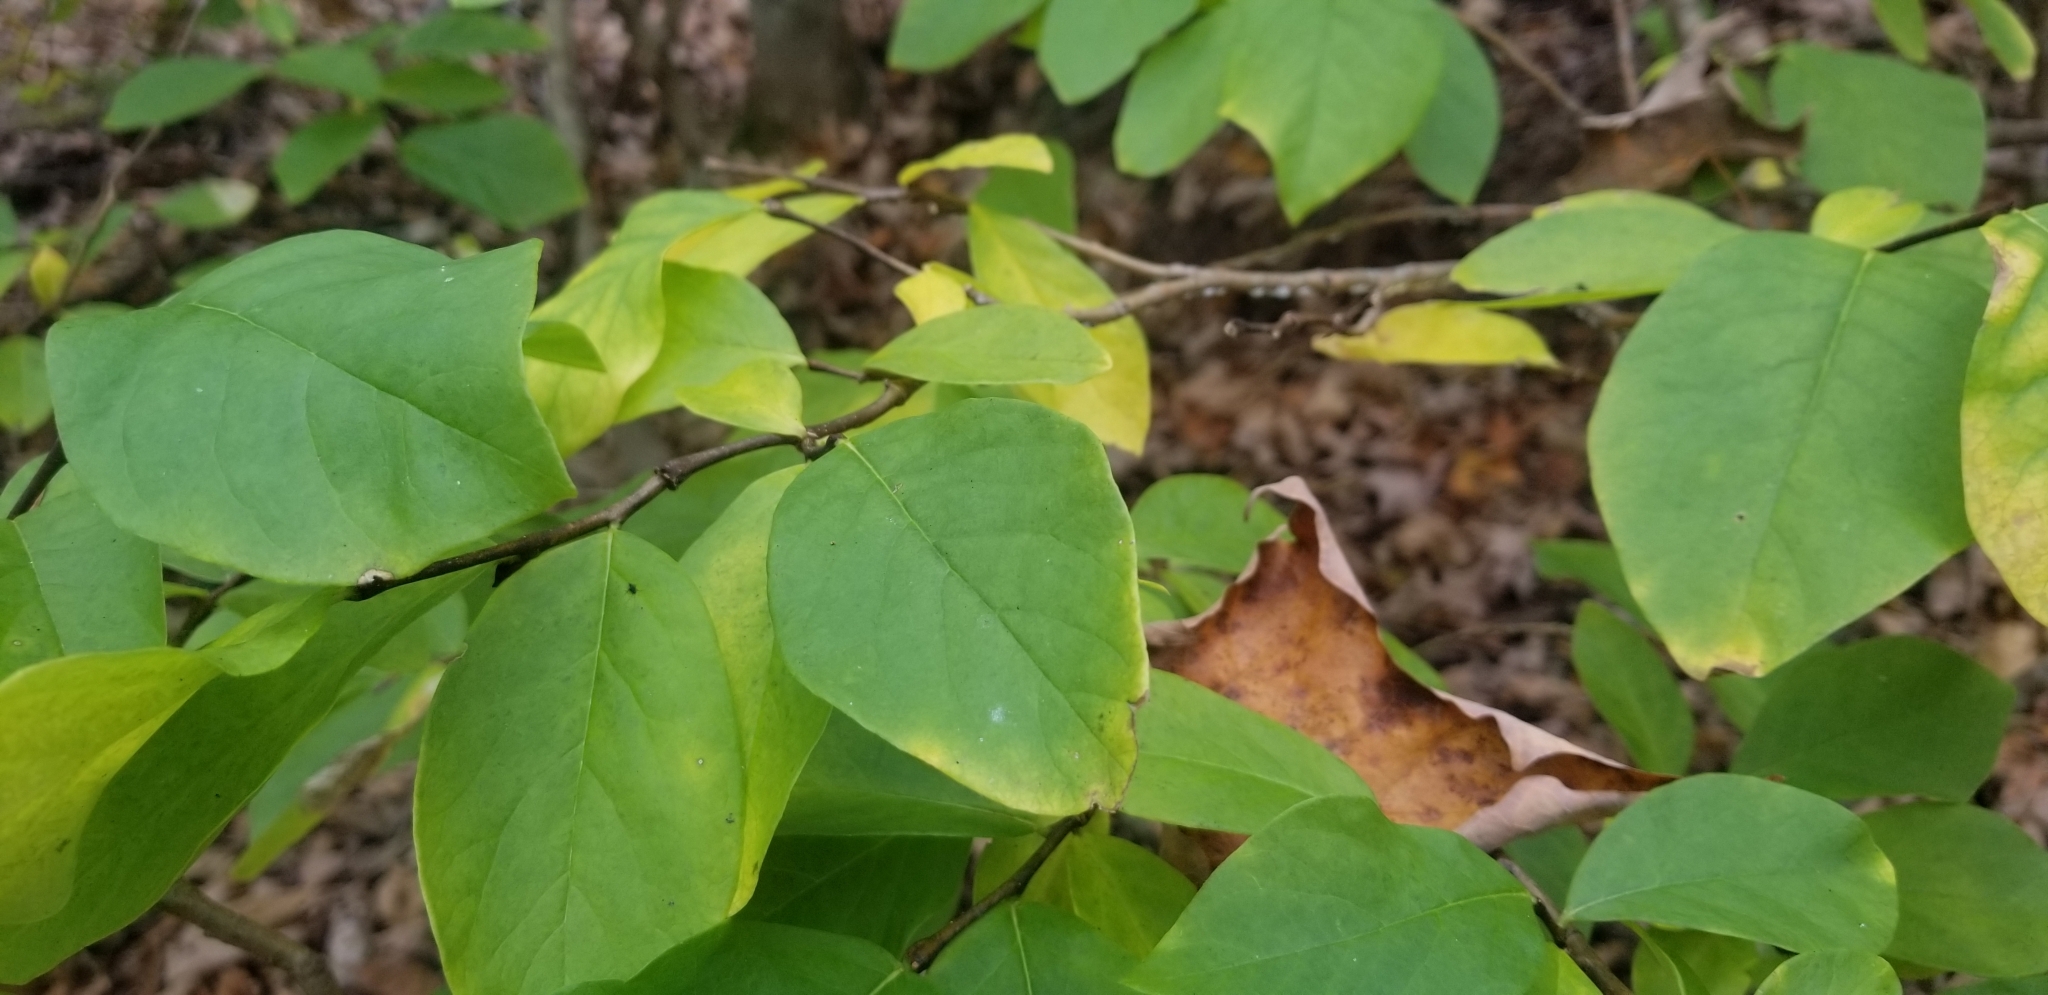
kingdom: Plantae
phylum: Tracheophyta
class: Magnoliopsida
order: Malvales
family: Thymelaeaceae
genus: Dirca
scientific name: Dirca palustris
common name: Leatherwood
